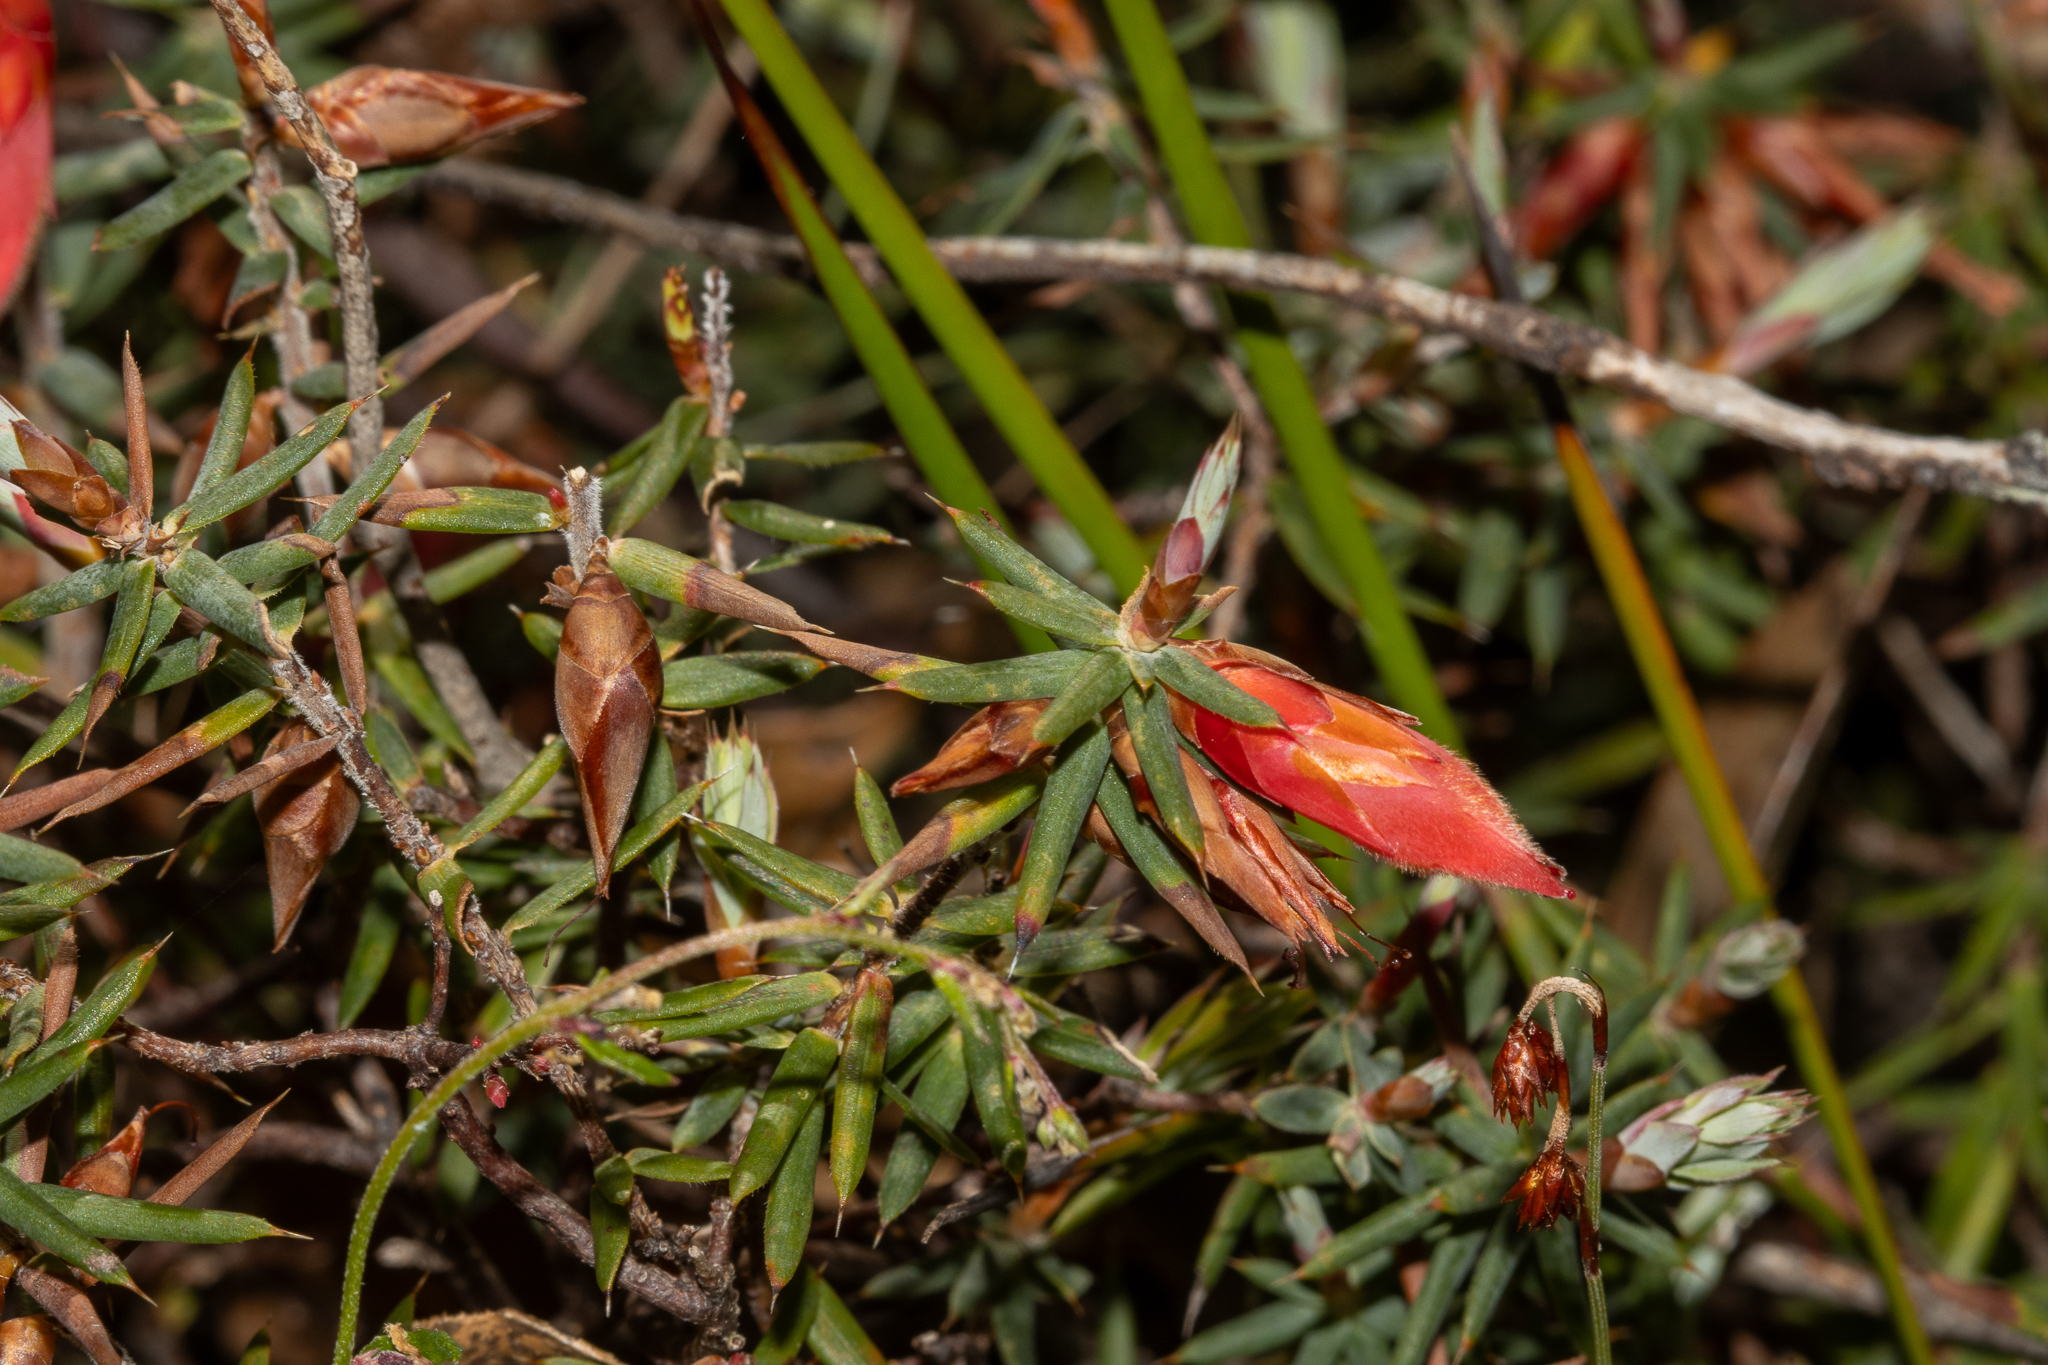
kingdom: Plantae
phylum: Tracheophyta
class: Magnoliopsida
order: Ericales
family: Ericaceae
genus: Stenanthera
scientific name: Stenanthera conostephioides
